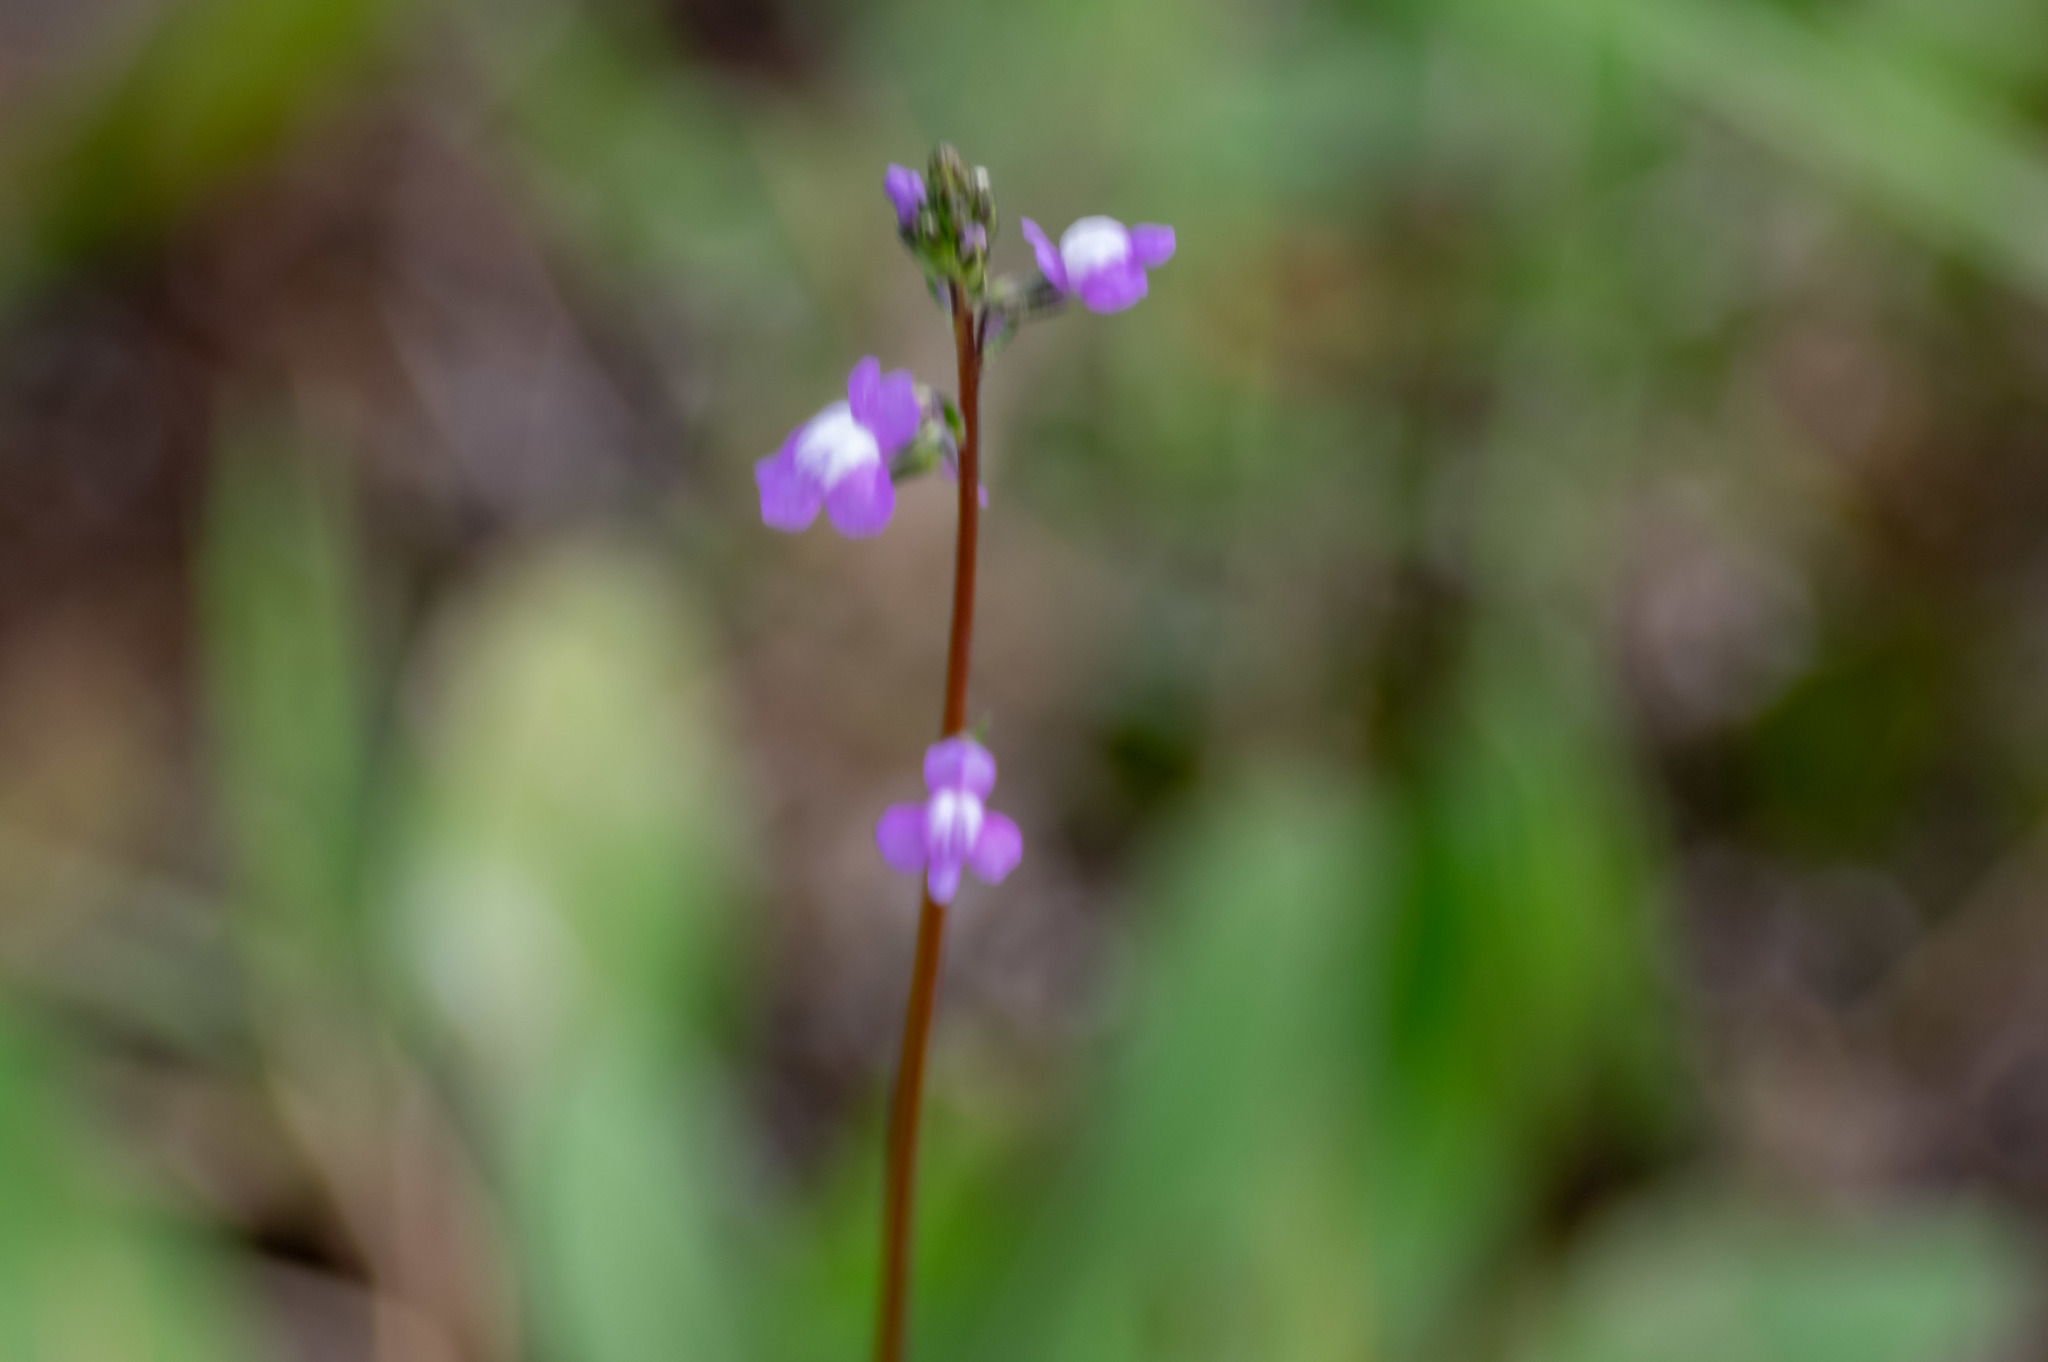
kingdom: Plantae
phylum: Tracheophyta
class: Magnoliopsida
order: Lamiales
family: Plantaginaceae
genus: Nuttallanthus
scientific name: Nuttallanthus canadensis
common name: Blue toadflax
